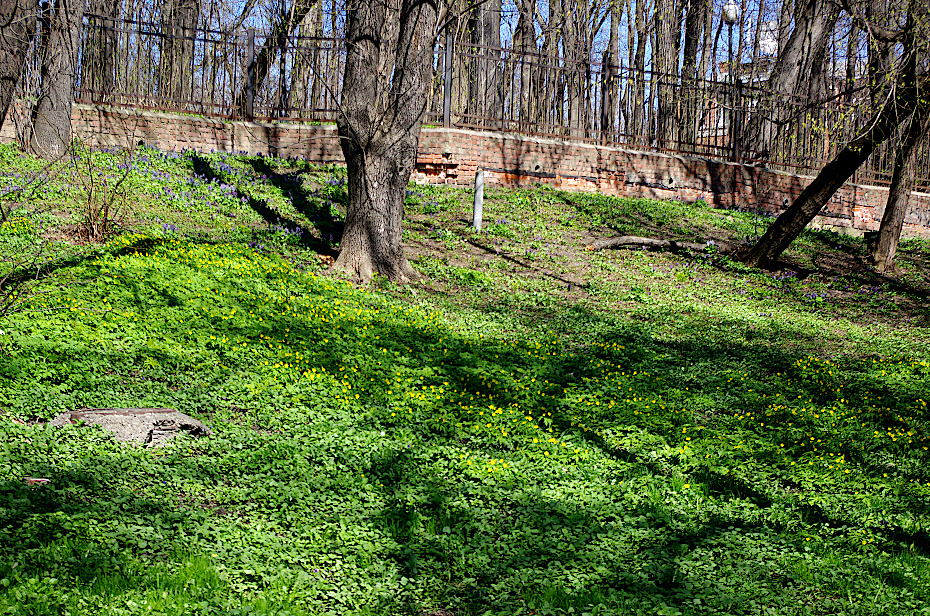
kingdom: Plantae
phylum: Tracheophyta
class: Magnoliopsida
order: Ranunculales
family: Ranunculaceae
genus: Anemone
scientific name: Anemone ranunculoides
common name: Yellow anemone
